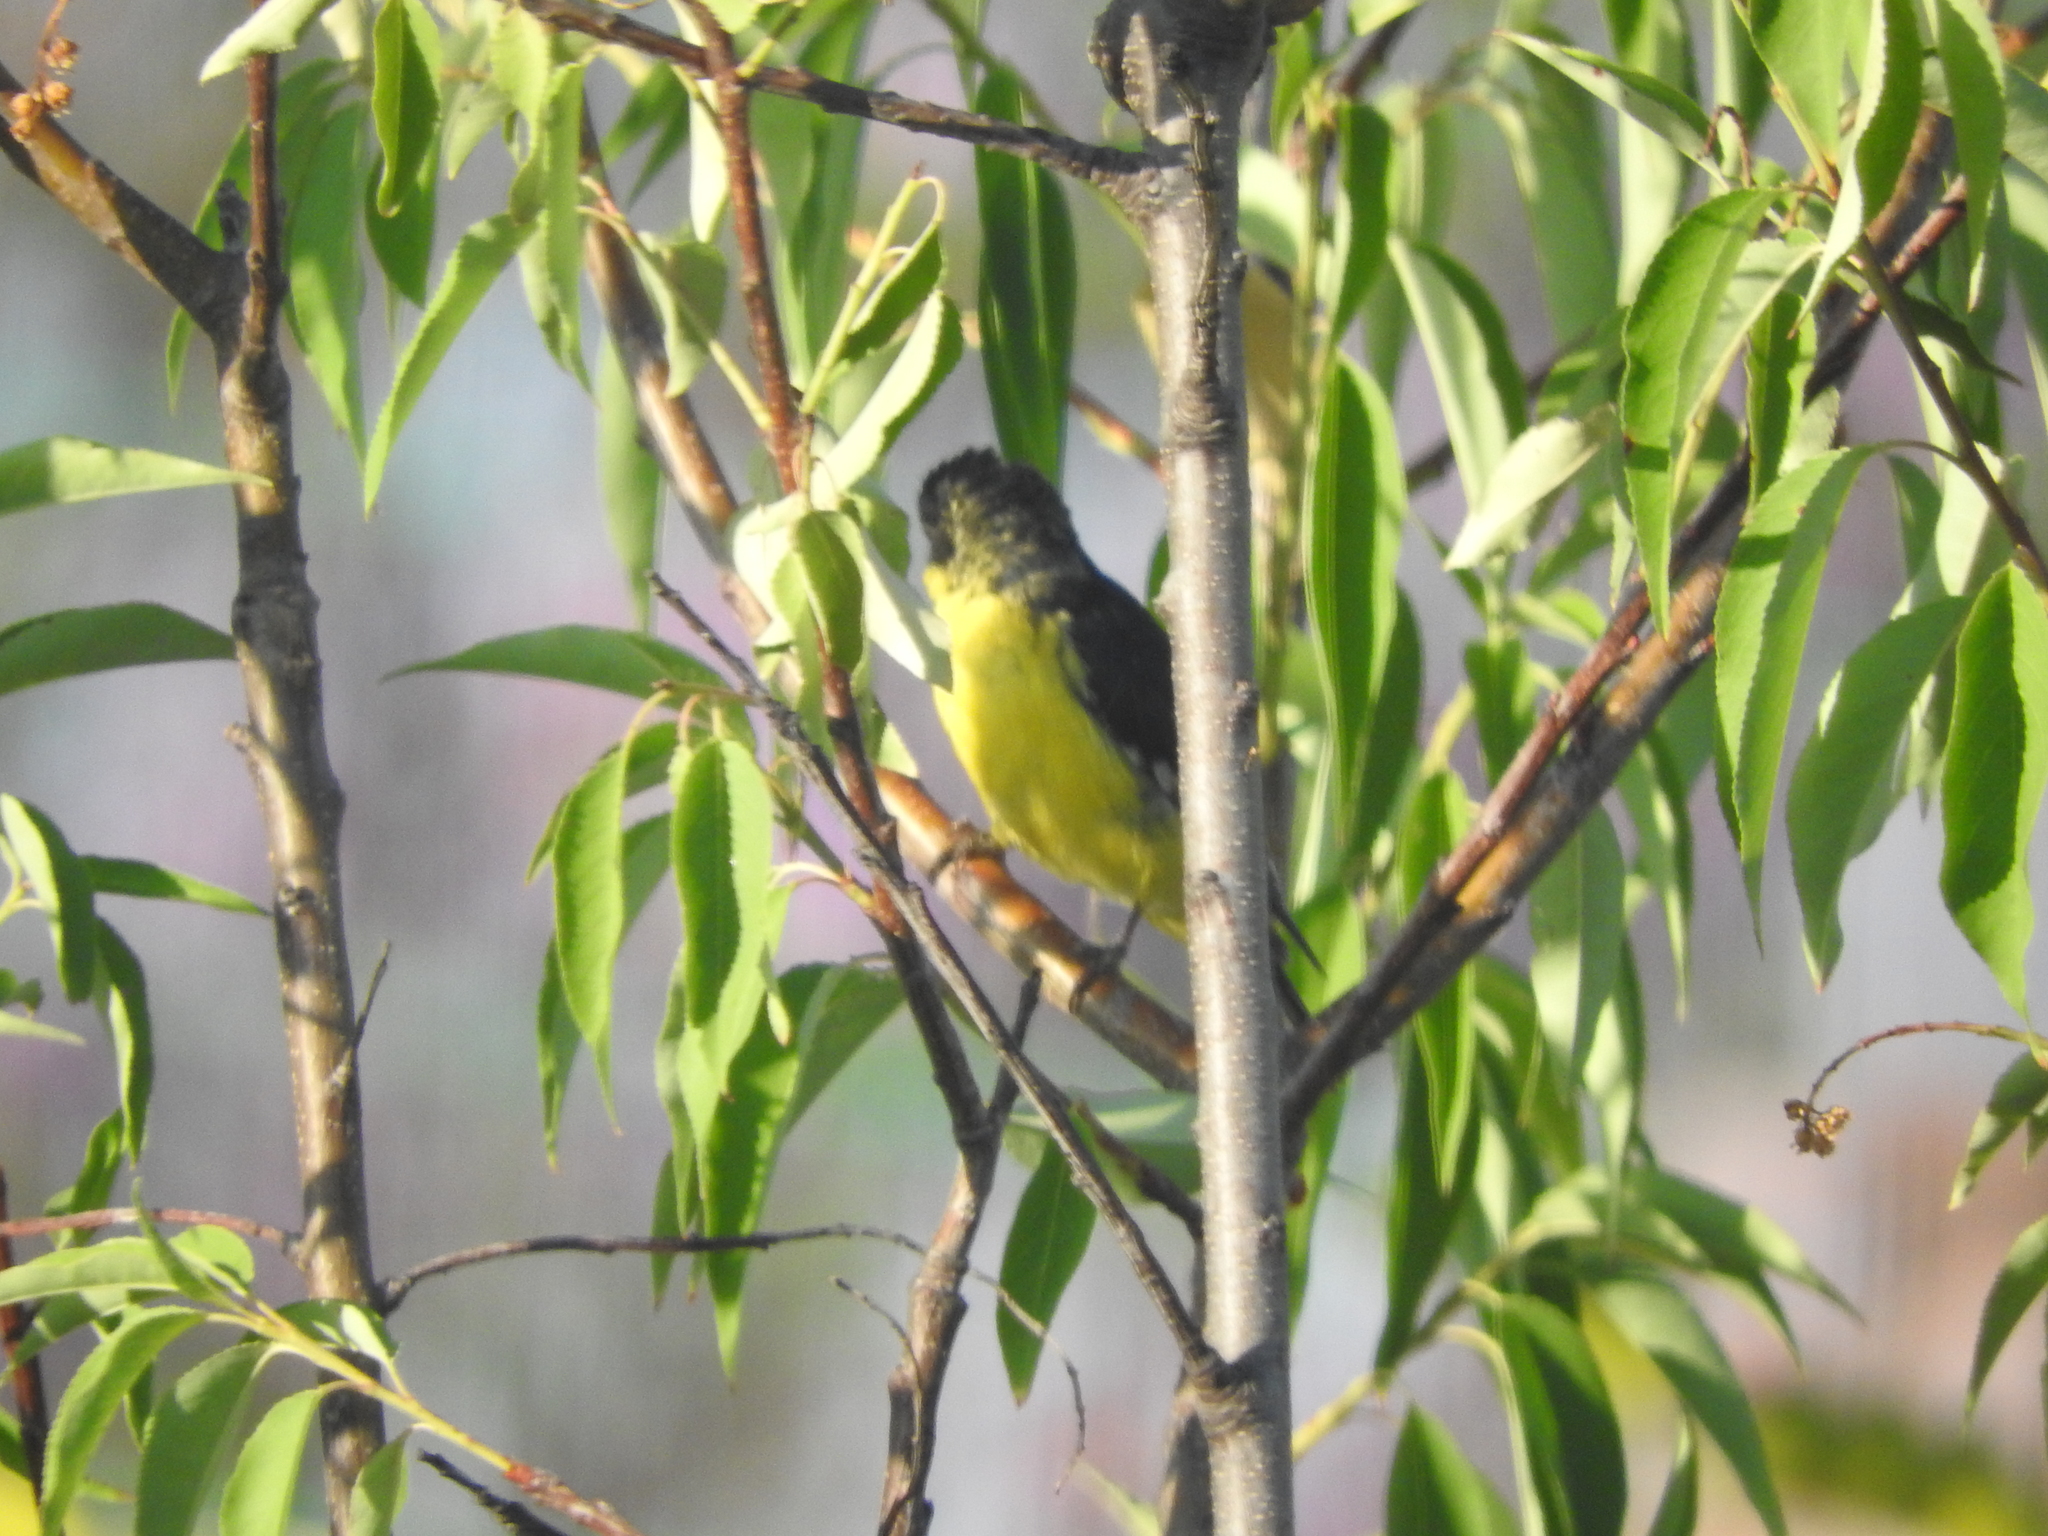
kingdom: Animalia
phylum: Chordata
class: Aves
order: Passeriformes
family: Fringillidae
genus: Spinus
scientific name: Spinus psaltria
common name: Lesser goldfinch
